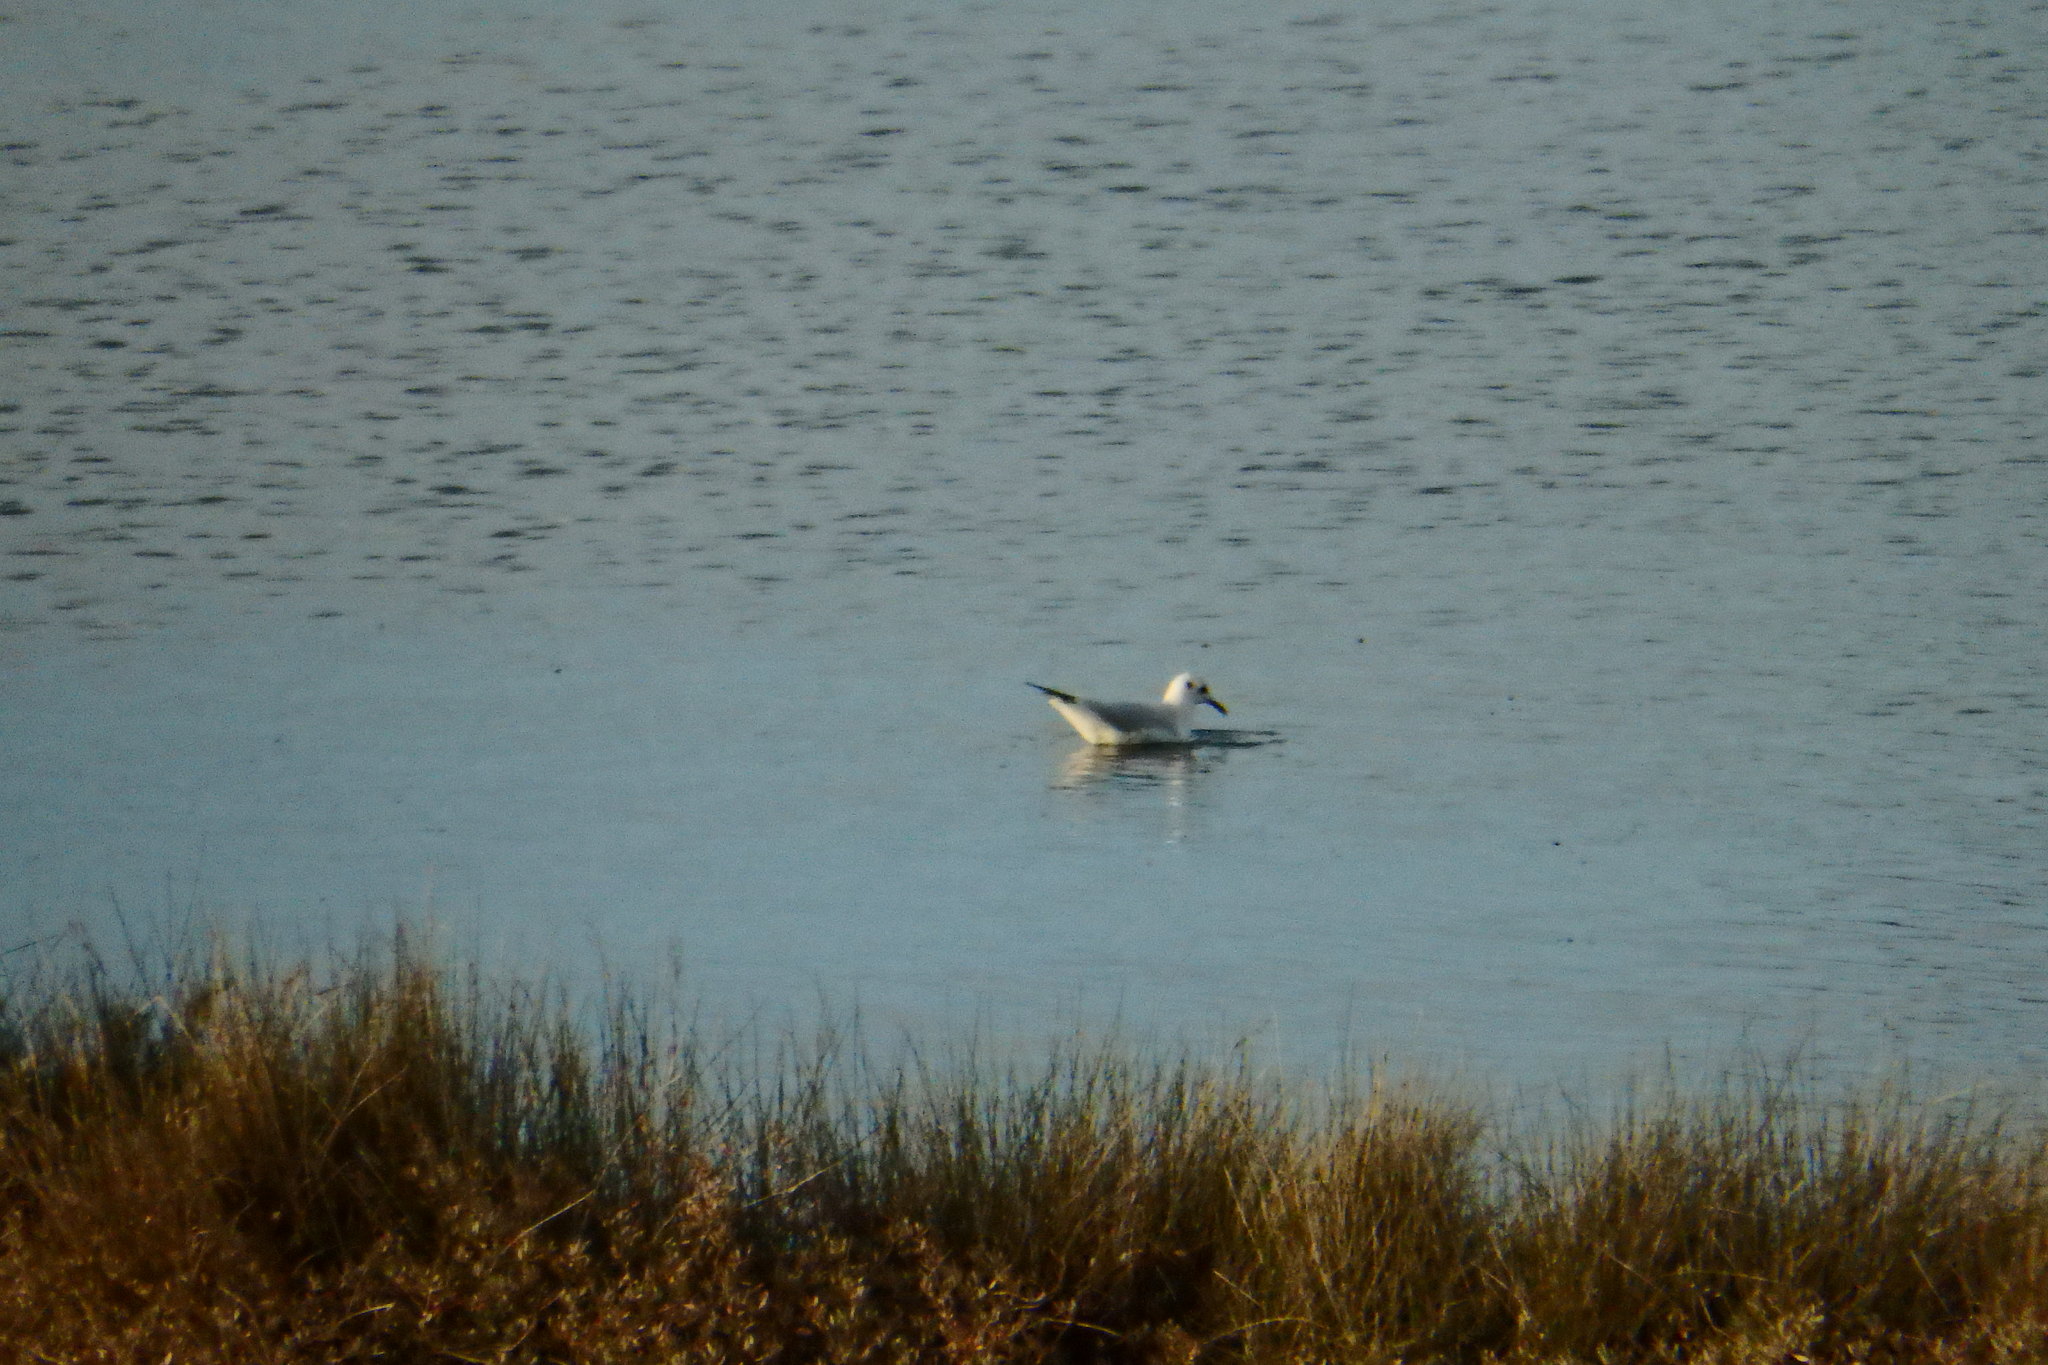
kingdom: Animalia
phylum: Chordata
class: Aves
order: Charadriiformes
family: Laridae
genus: Chroicocephalus
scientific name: Chroicocephalus ridibundus
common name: Black-headed gull
